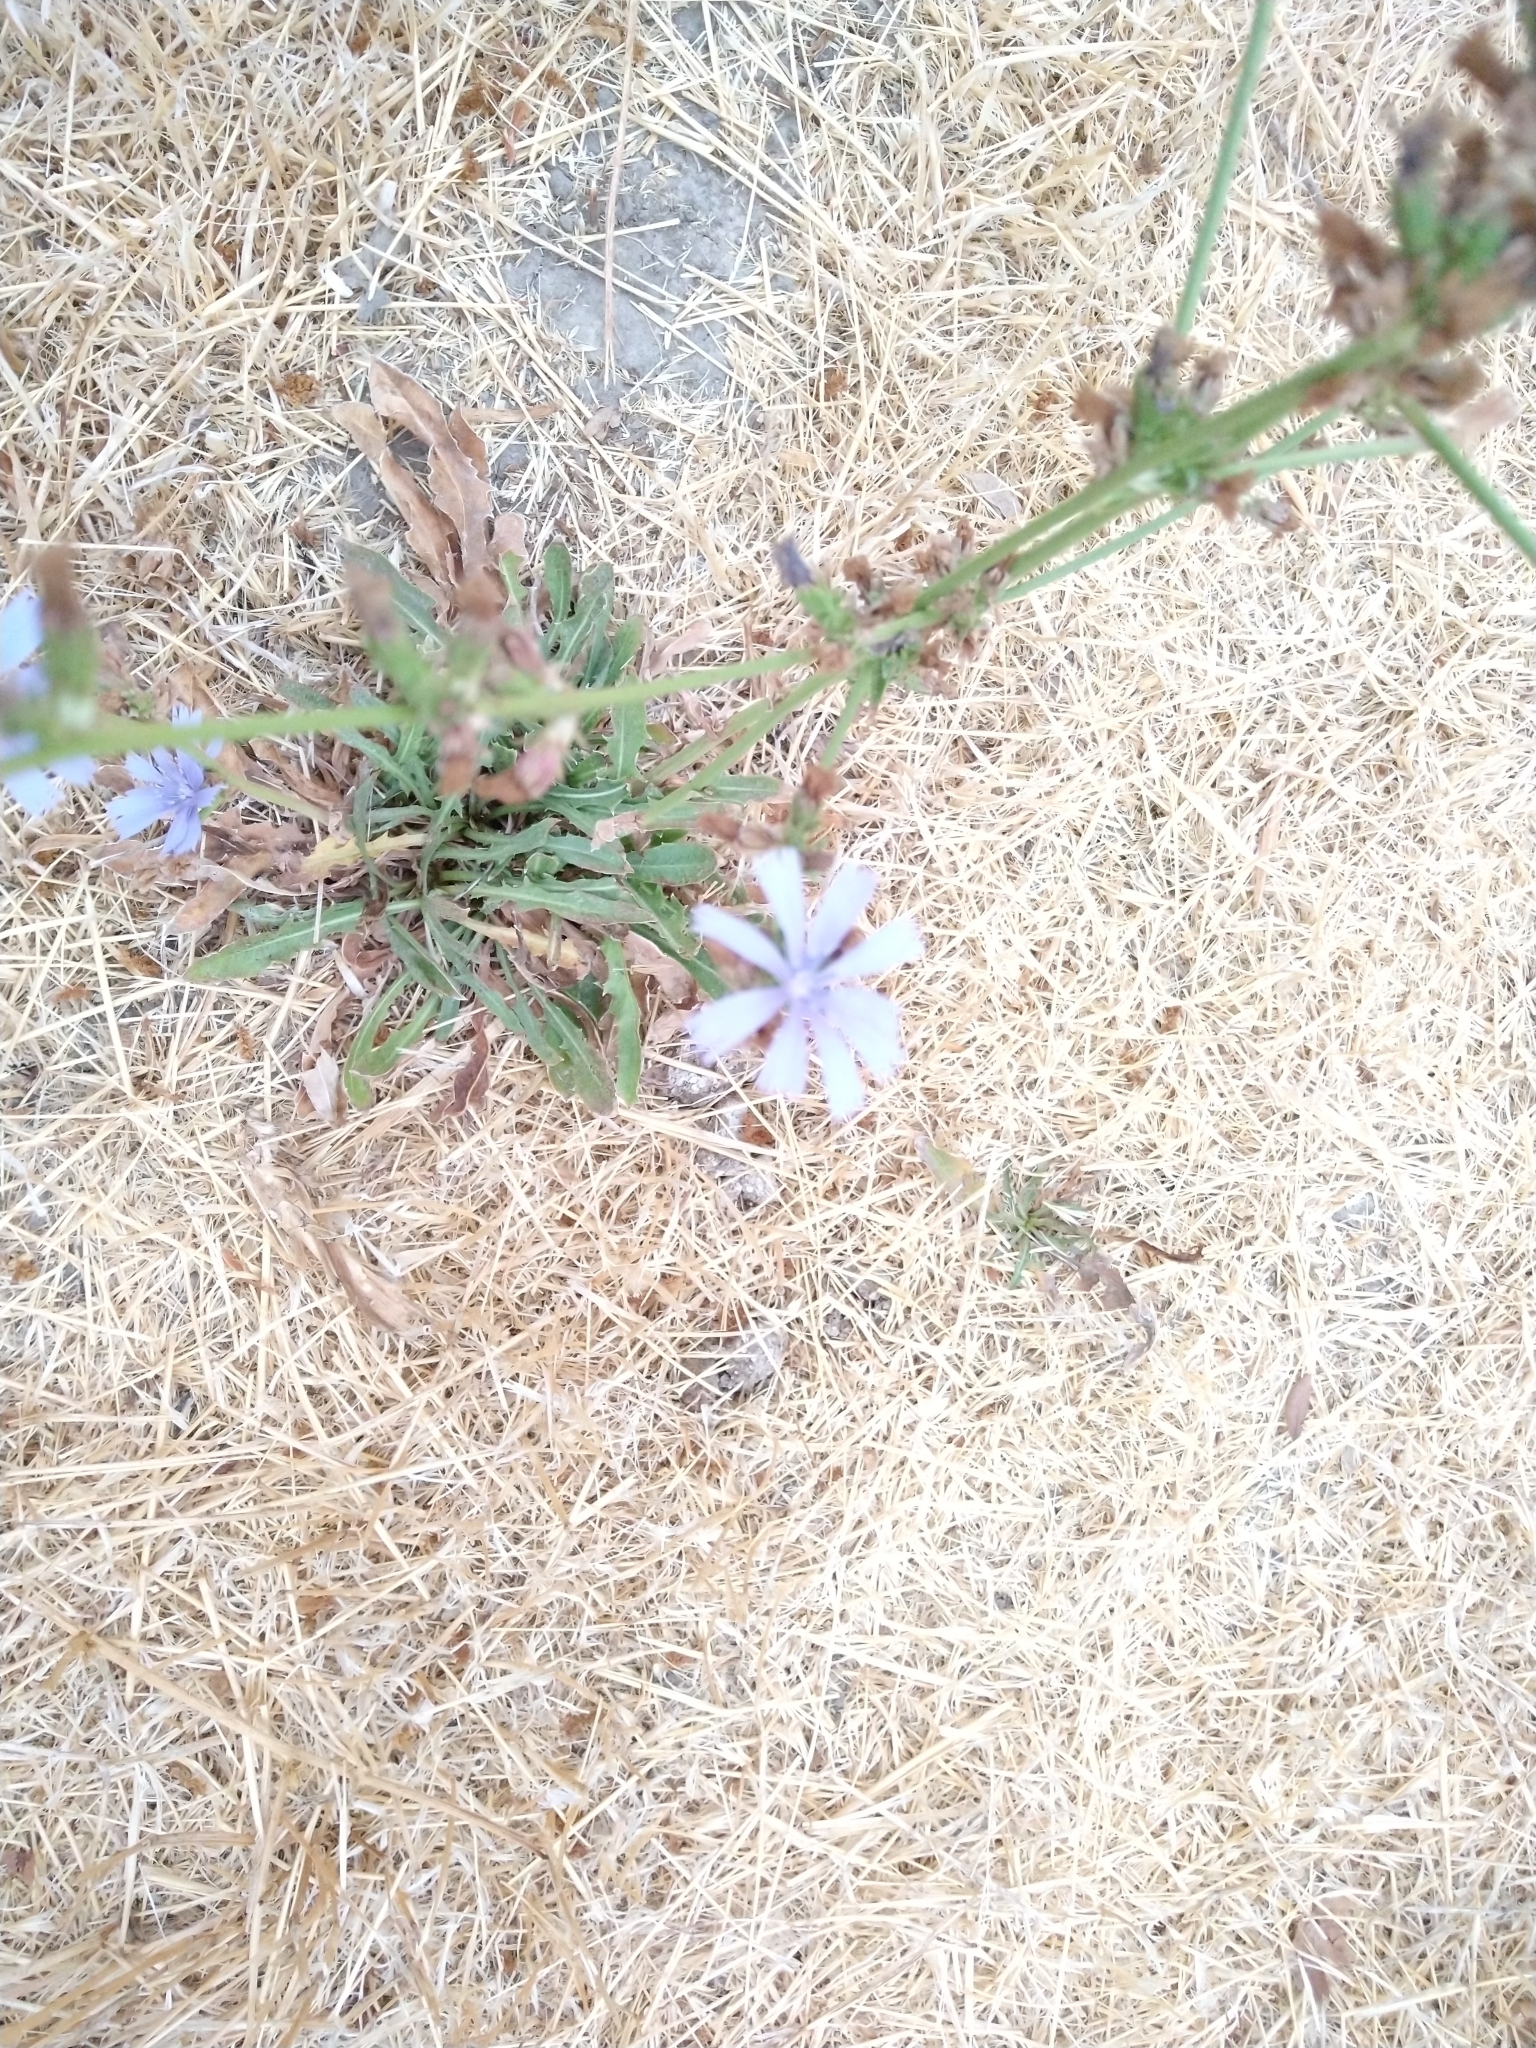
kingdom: Plantae
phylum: Tracheophyta
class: Magnoliopsida
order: Asterales
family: Asteraceae
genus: Cichorium
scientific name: Cichorium intybus
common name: Chicory
